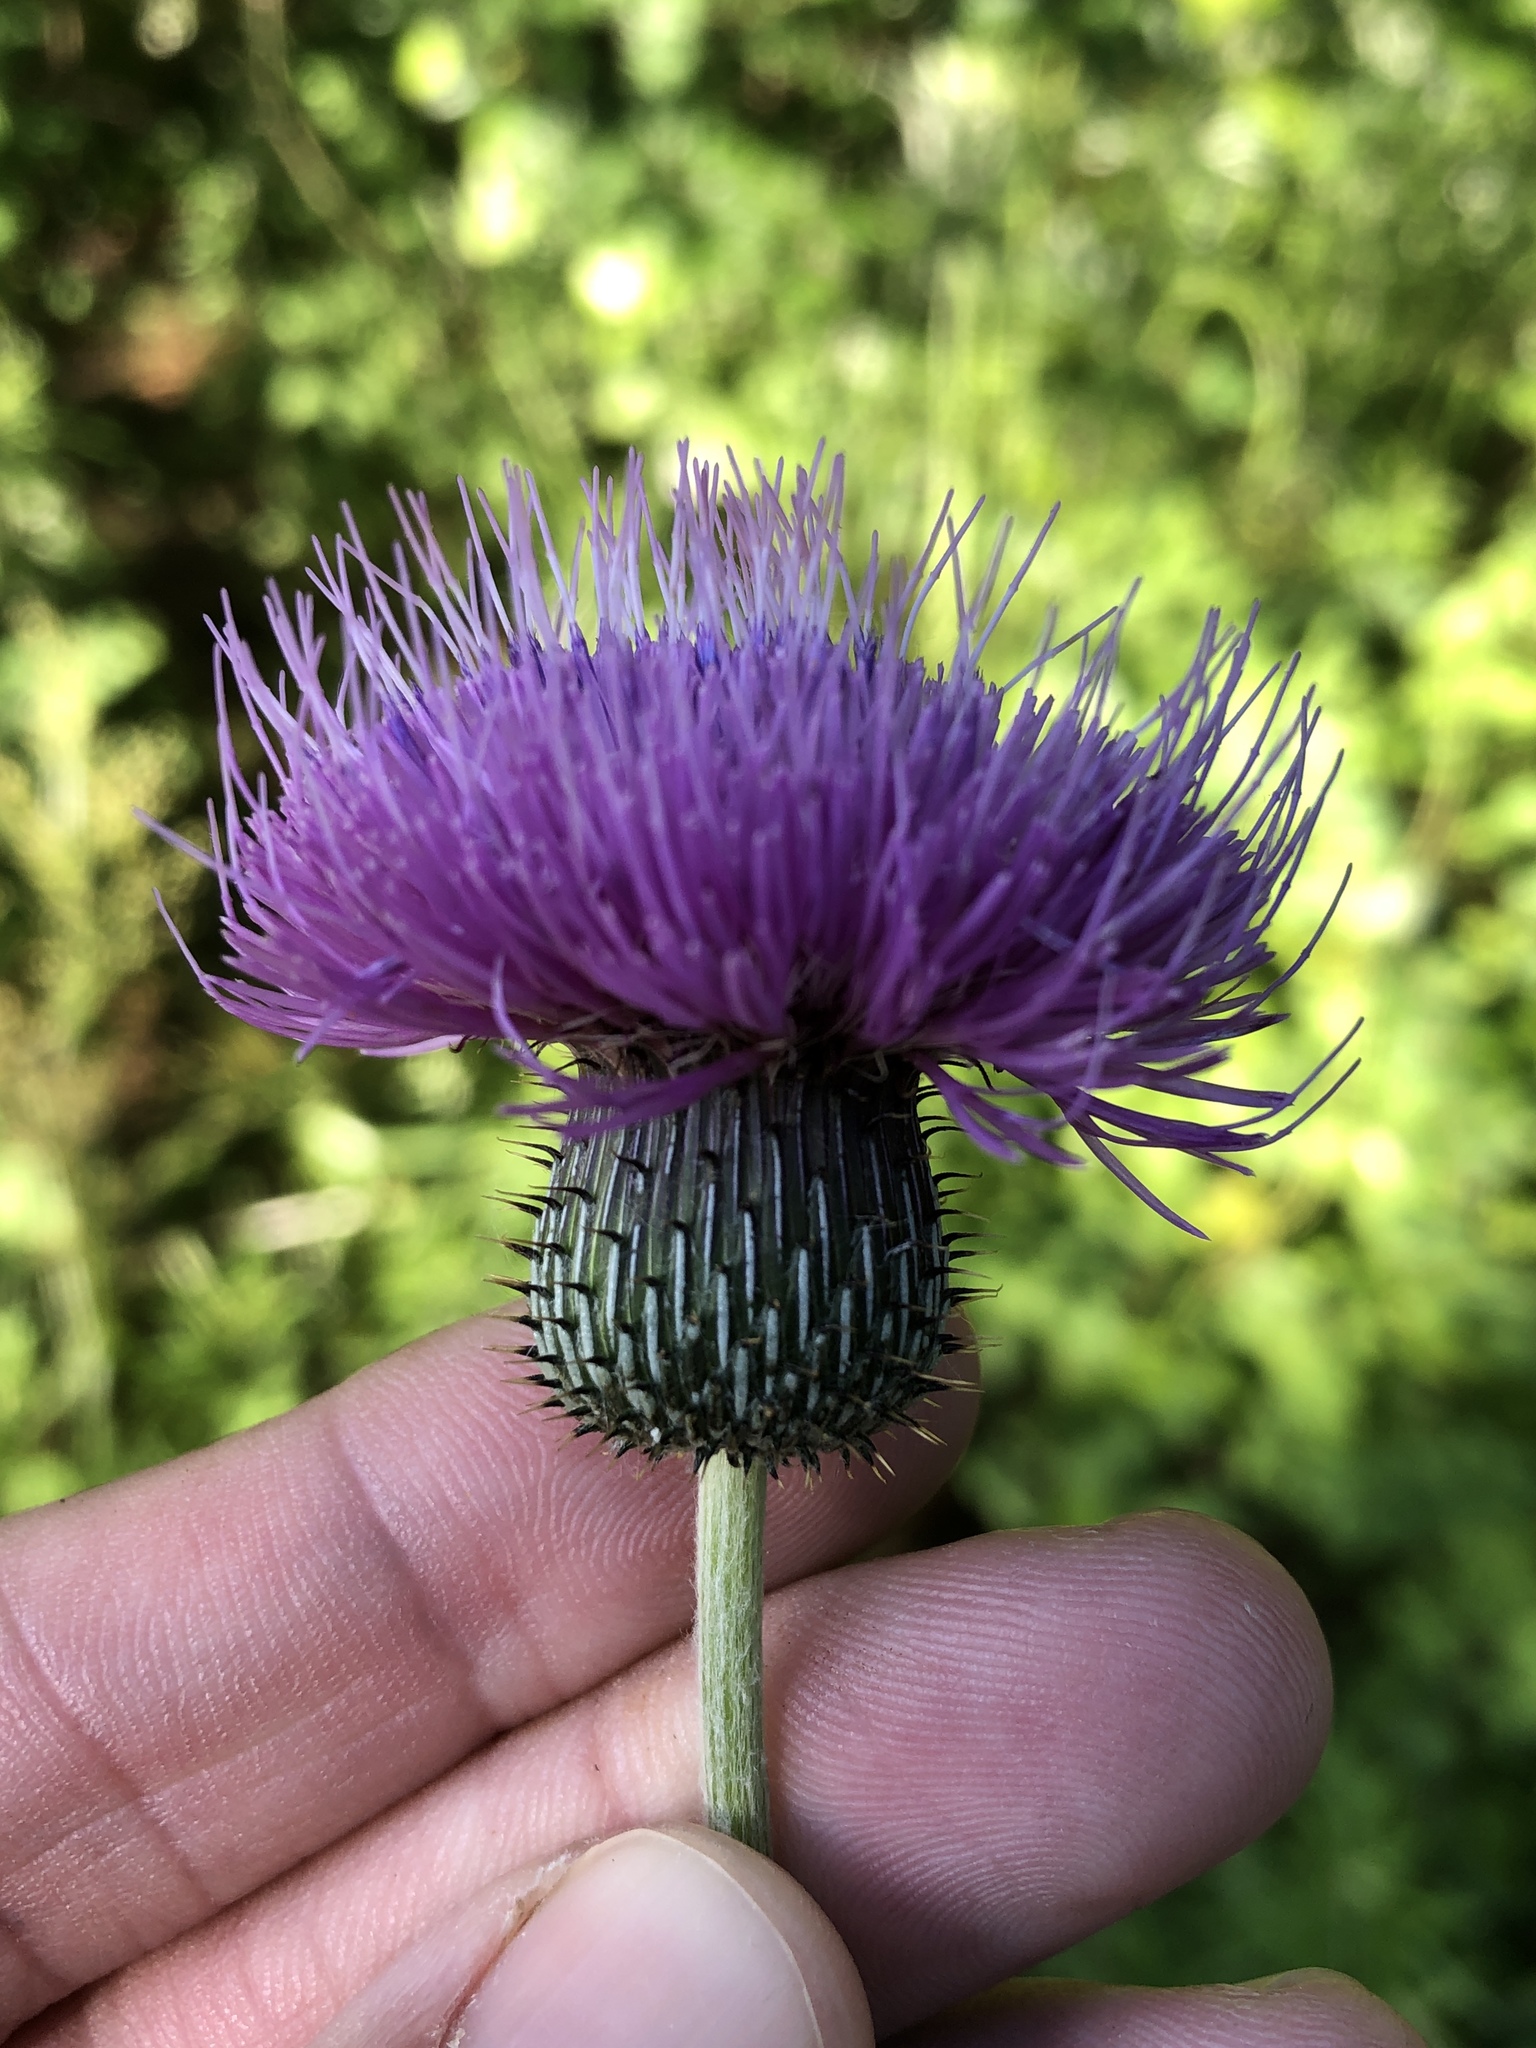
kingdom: Plantae
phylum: Tracheophyta
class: Magnoliopsida
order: Asterales
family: Asteraceae
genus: Cirsium
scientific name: Cirsium texanum
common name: Texas purple thistle
